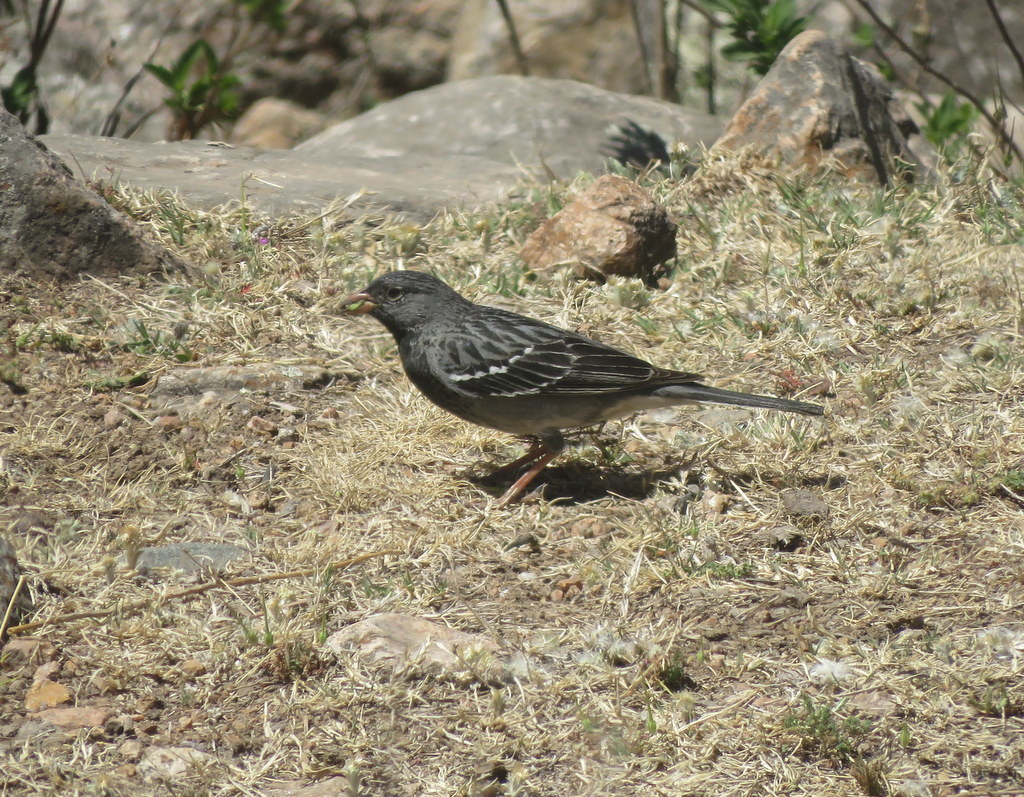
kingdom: Animalia
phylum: Chordata
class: Aves
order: Passeriformes
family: Thraupidae
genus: Rhopospina
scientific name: Rhopospina fruticeti
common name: Mourning sierra finch
